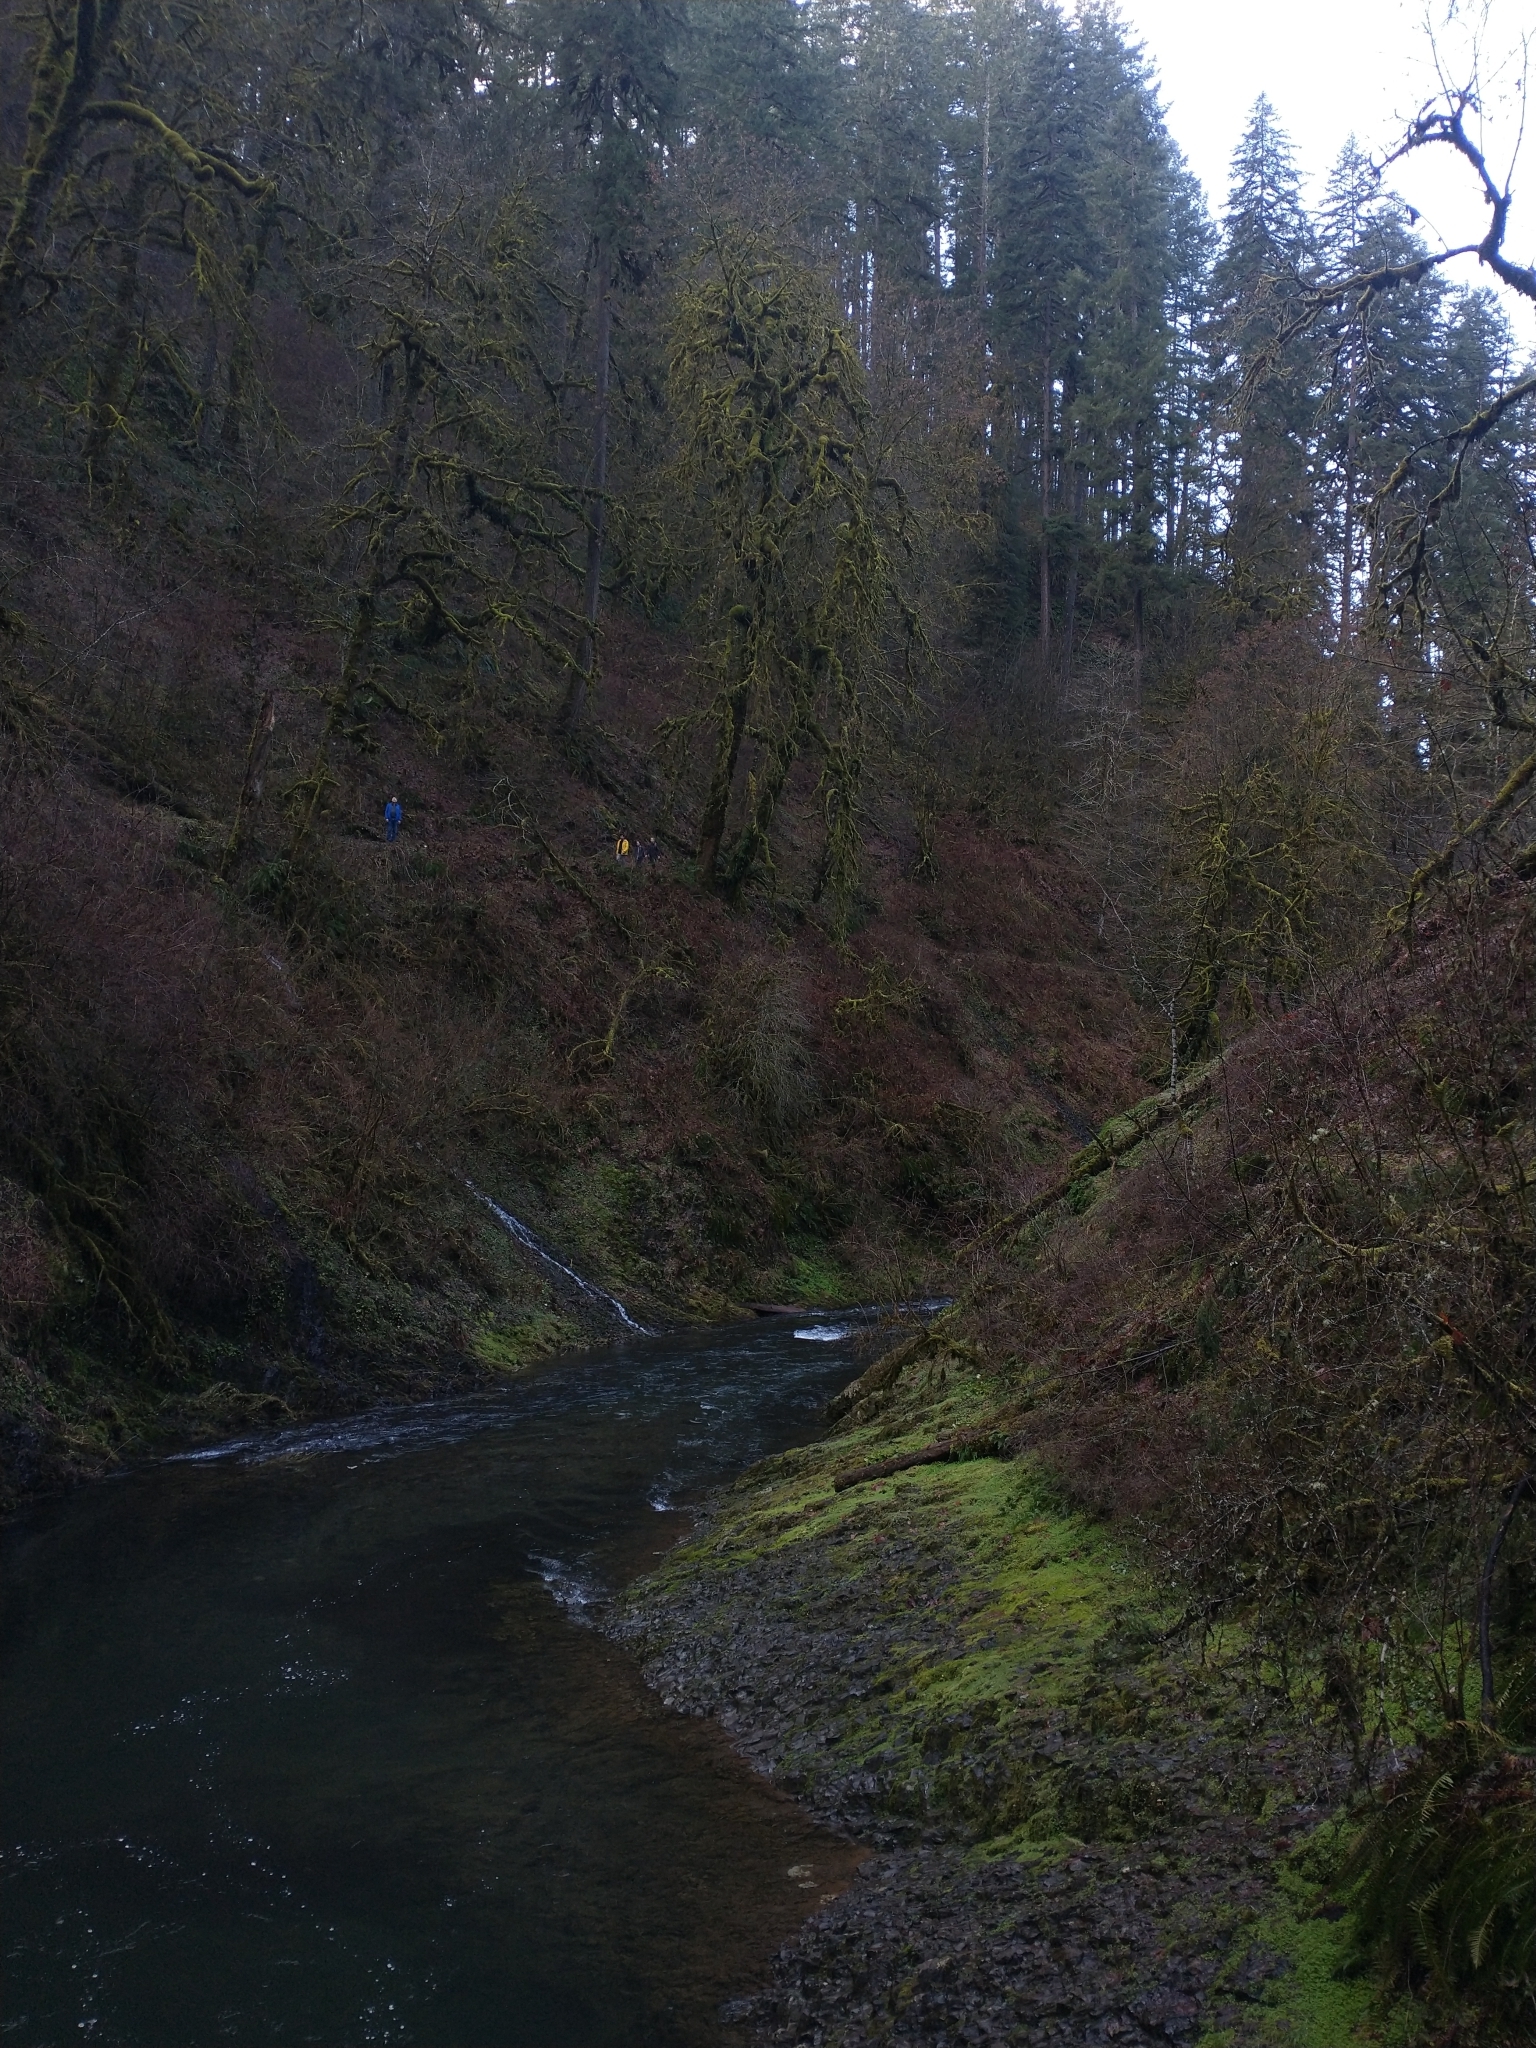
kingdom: Plantae
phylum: Tracheophyta
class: Magnoliopsida
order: Sapindales
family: Sapindaceae
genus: Acer
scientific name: Acer macrophyllum
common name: Oregon maple
